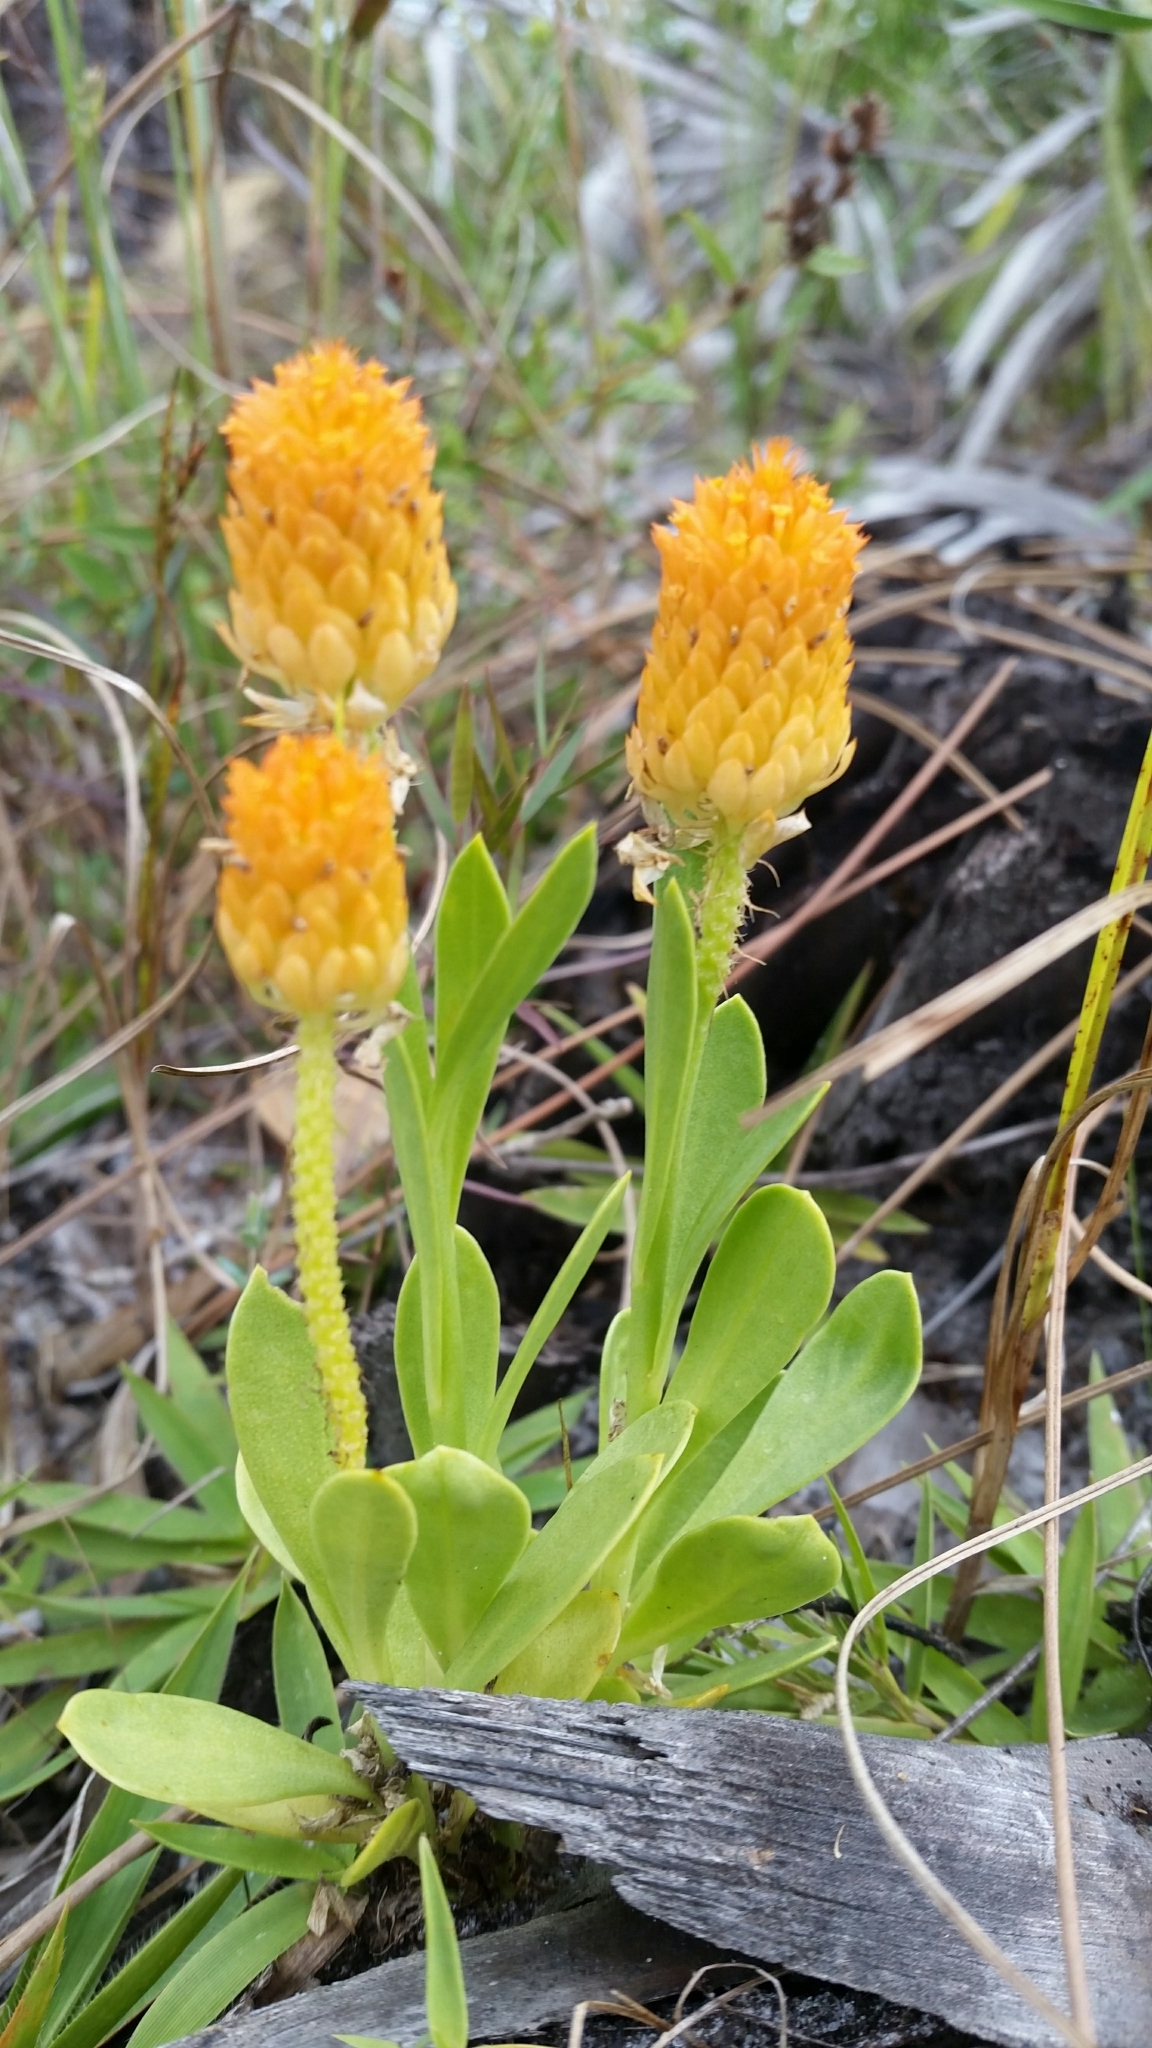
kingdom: Plantae
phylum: Tracheophyta
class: Magnoliopsida
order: Fabales
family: Polygalaceae
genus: Polygala
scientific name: Polygala lutea
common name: Orange milkwort
